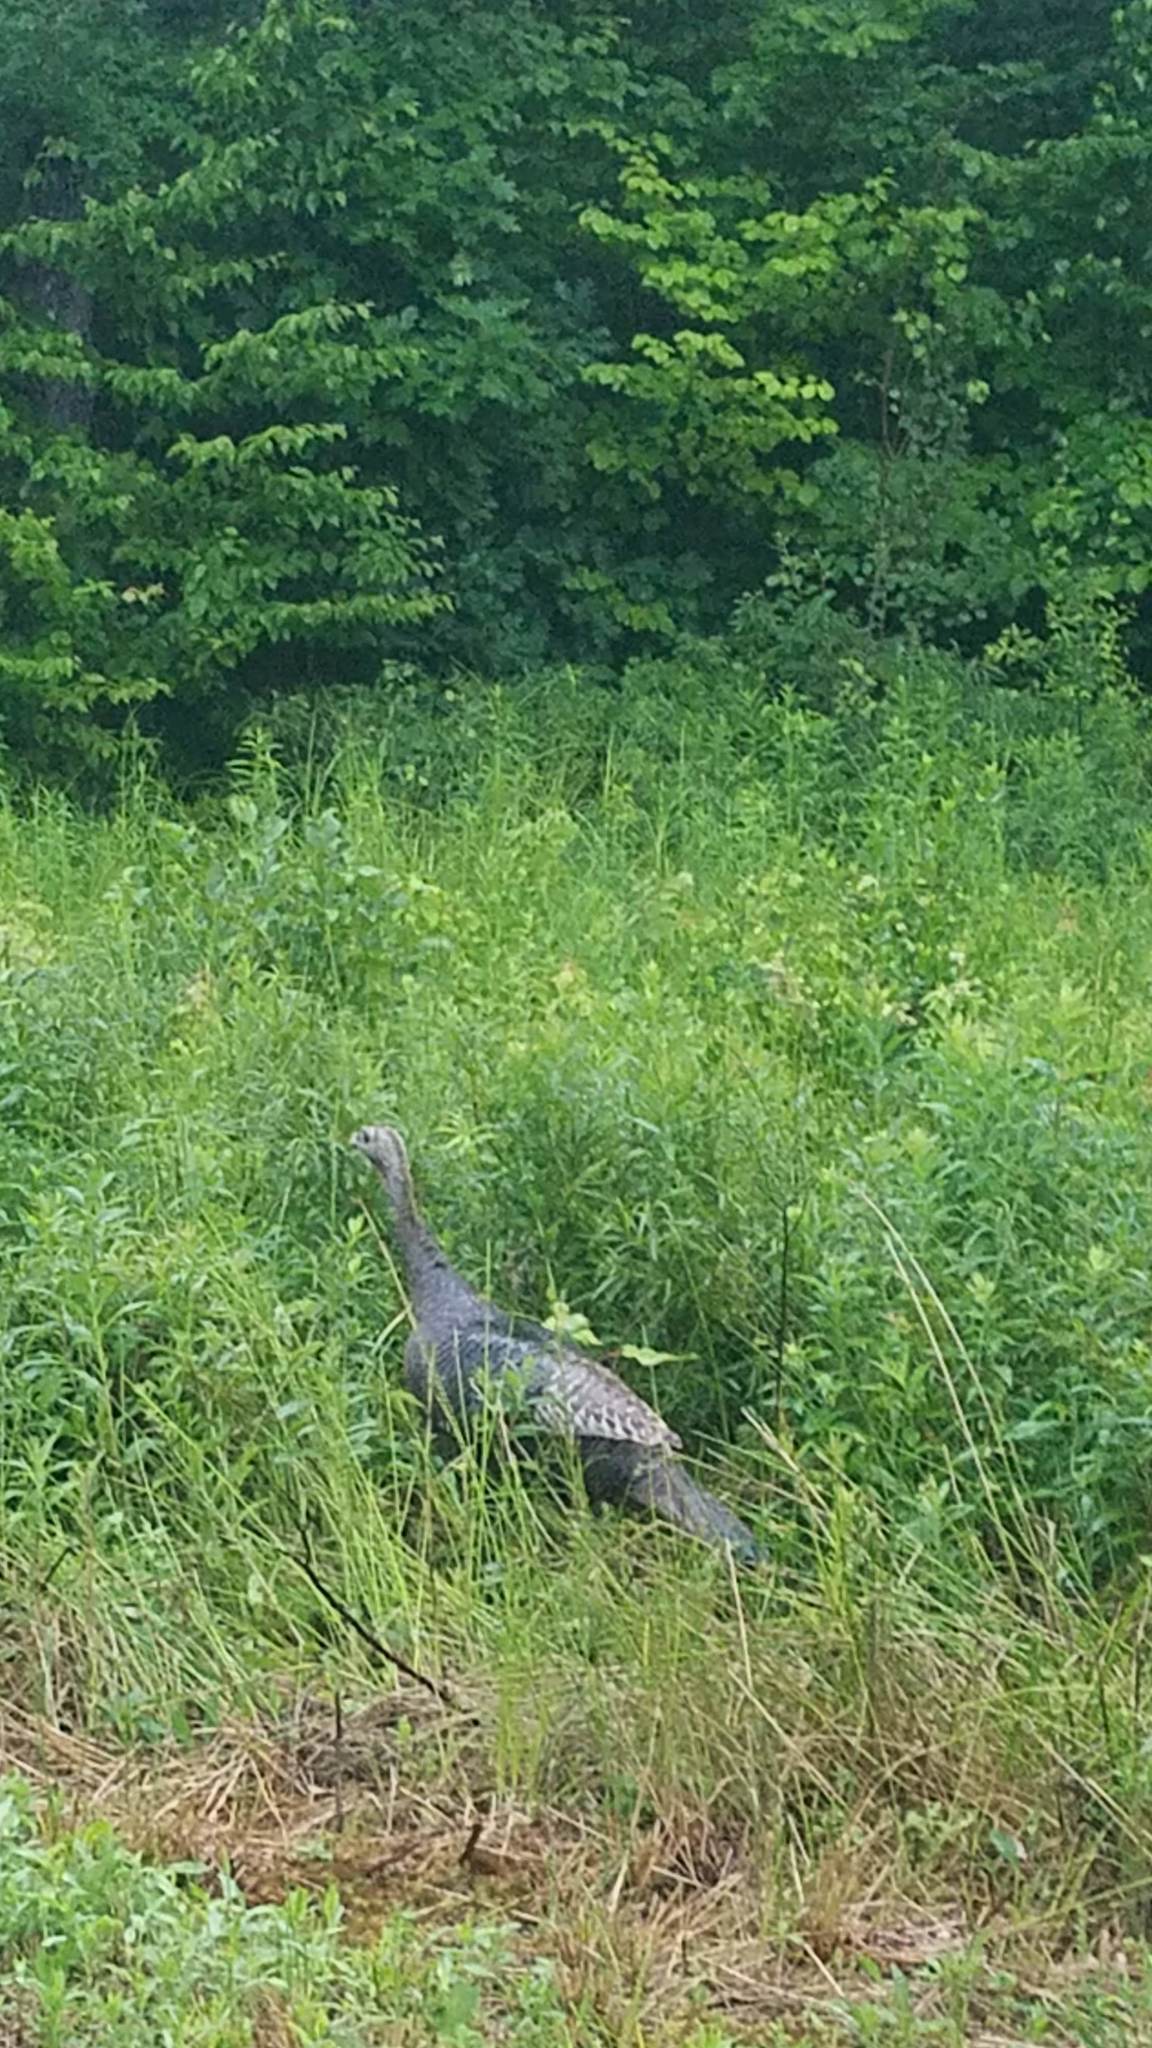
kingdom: Animalia
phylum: Chordata
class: Aves
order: Galliformes
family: Phasianidae
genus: Meleagris
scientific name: Meleagris gallopavo
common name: Wild turkey
